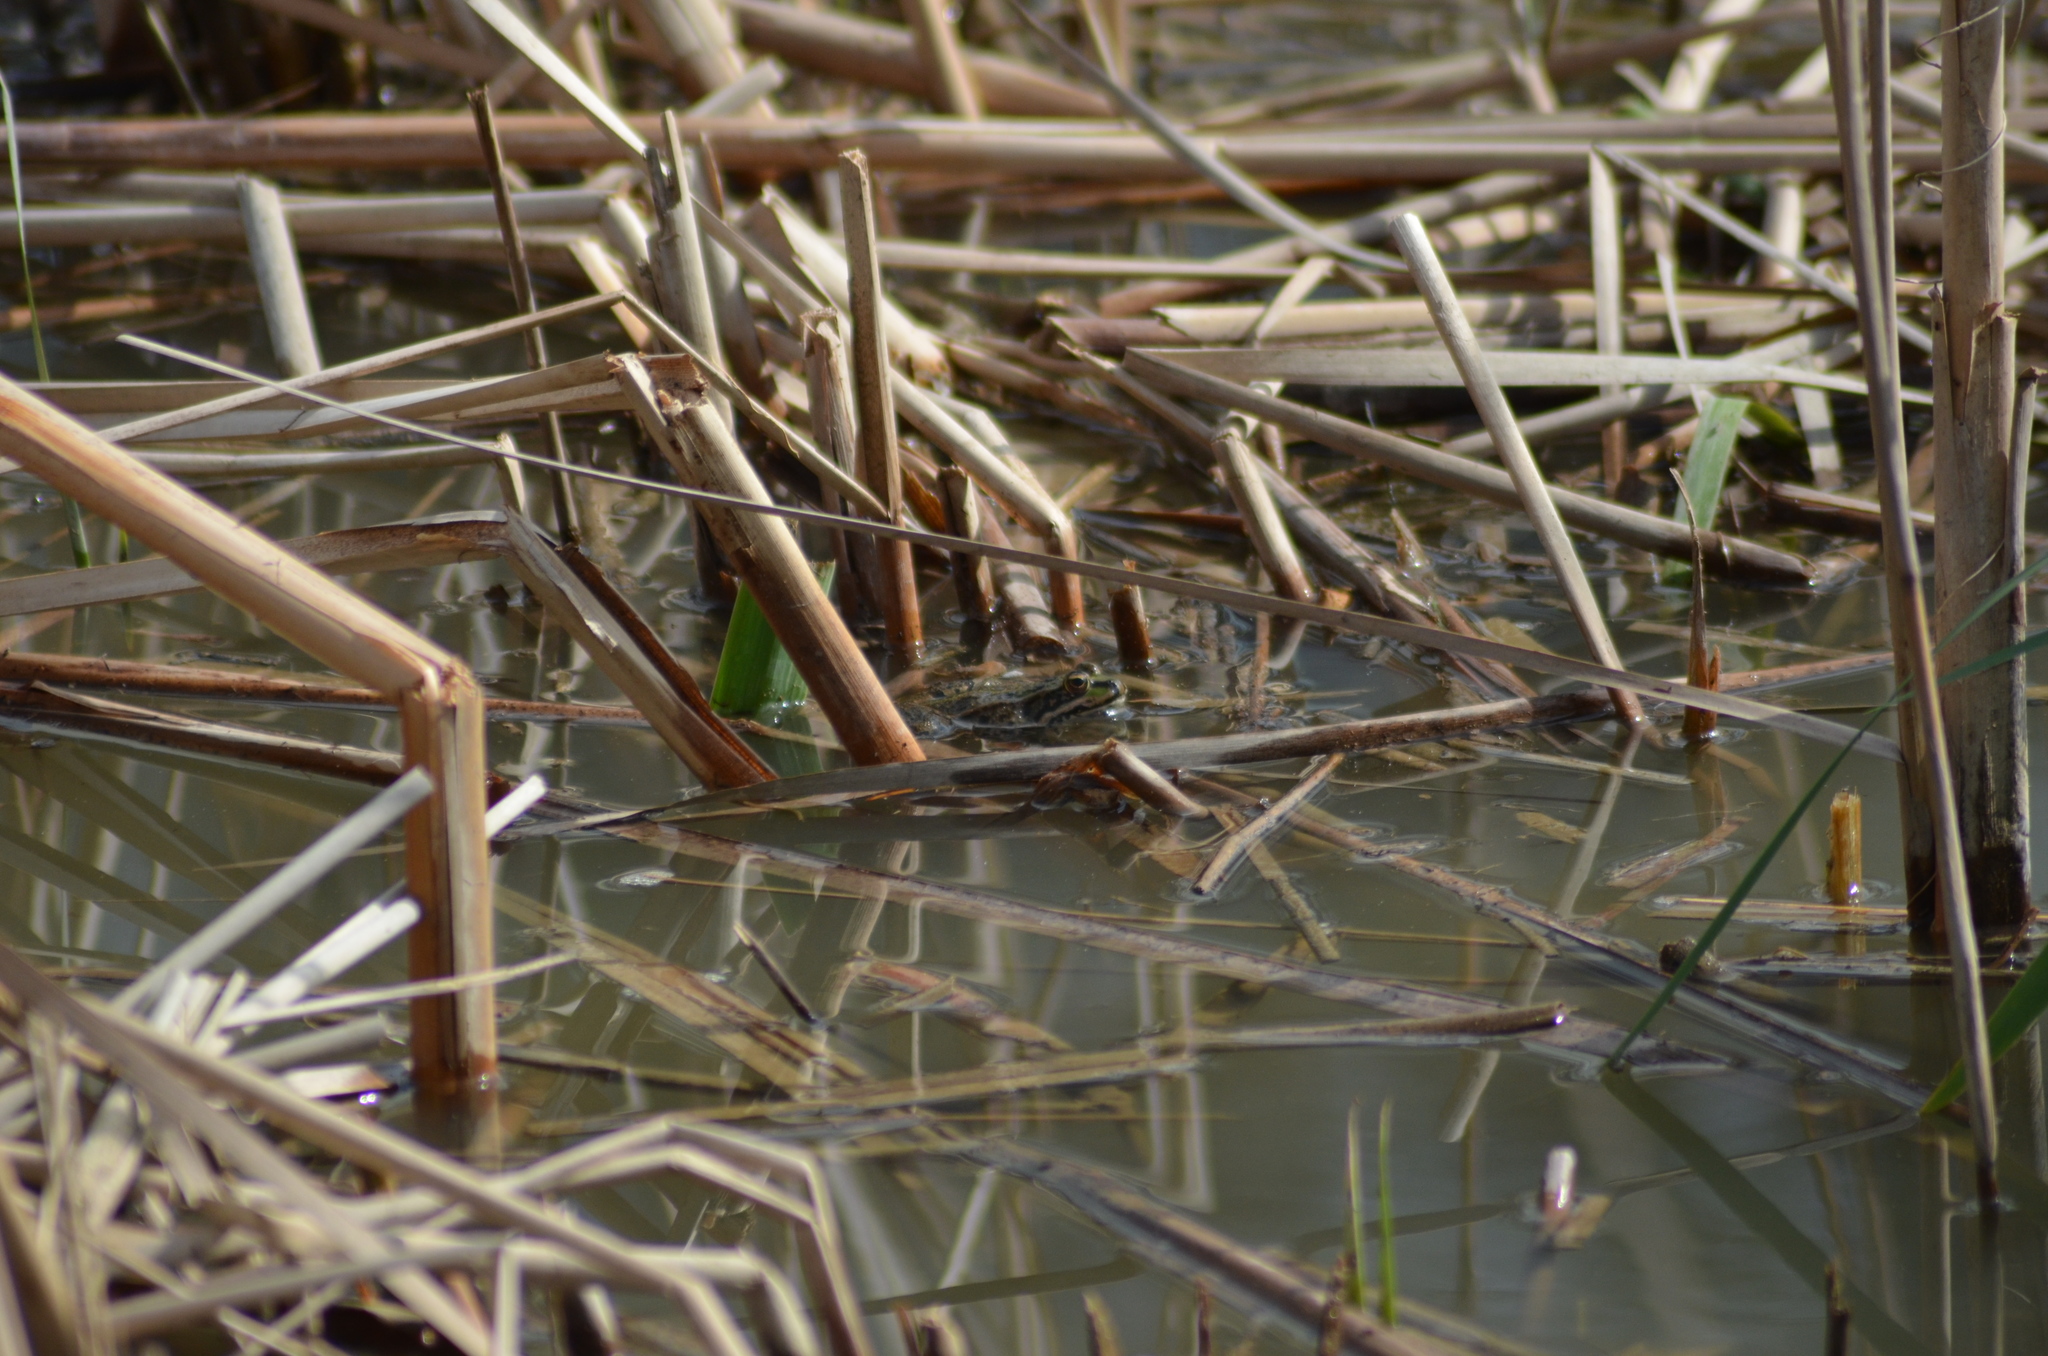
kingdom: Animalia
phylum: Chordata
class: Amphibia
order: Anura
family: Ranidae
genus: Pelophylax
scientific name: Pelophylax perezi
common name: Perez's frog
